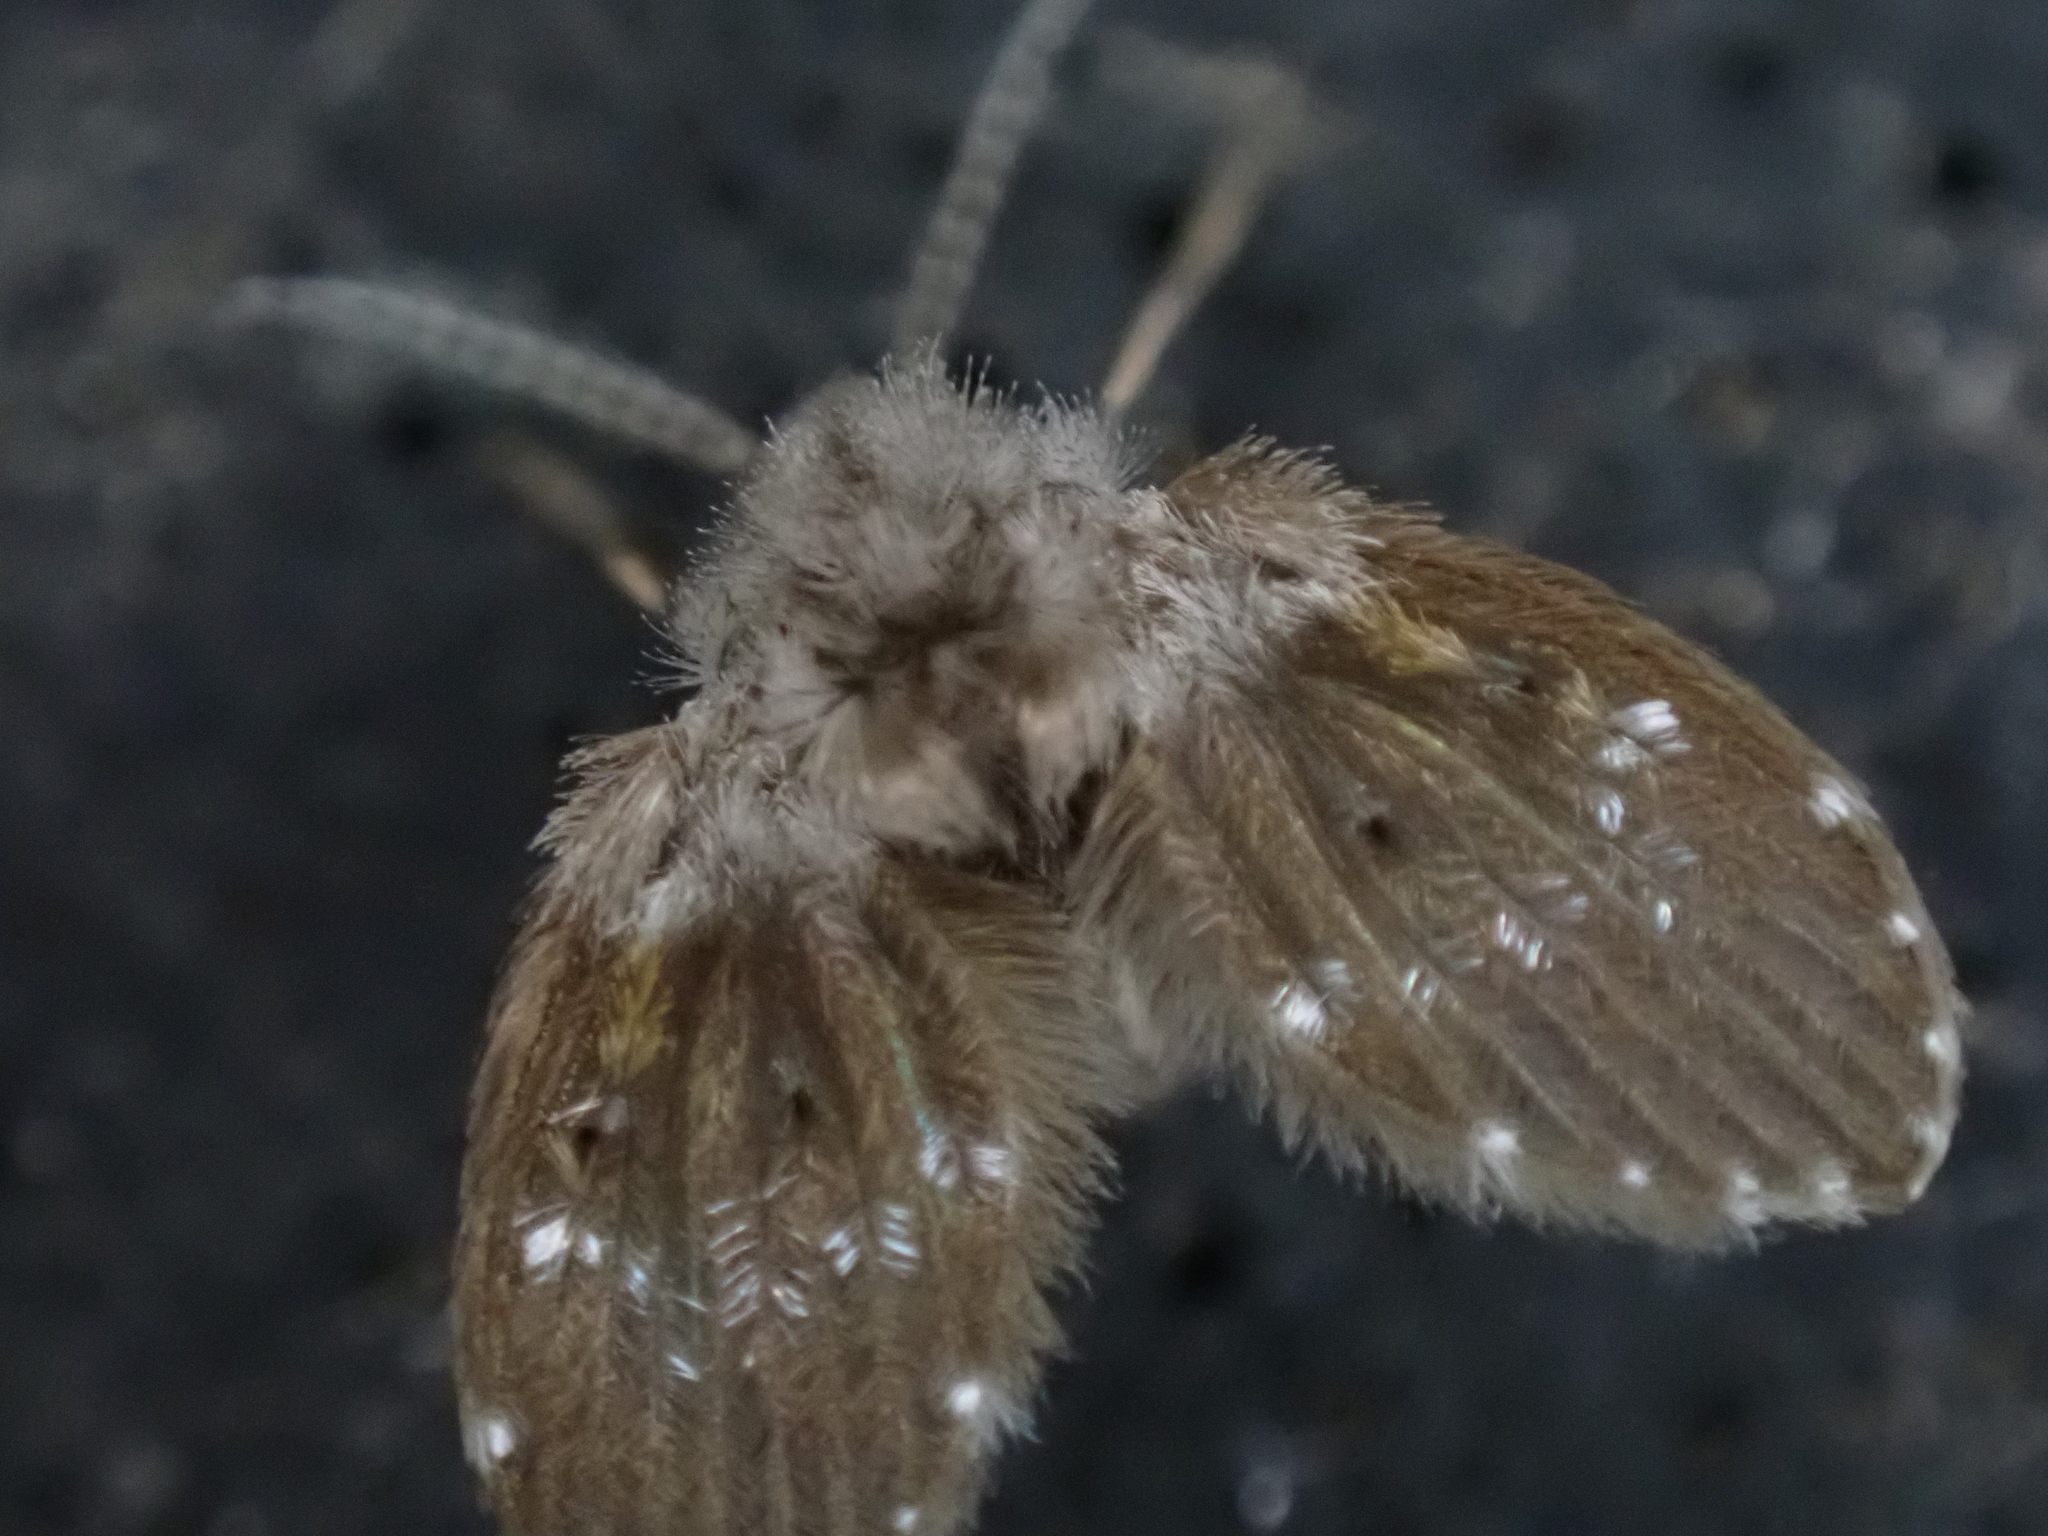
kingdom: Animalia
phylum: Arthropoda
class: Insecta
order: Diptera
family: Psychodidae
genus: Clogmia
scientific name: Clogmia albipunctatus
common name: White-spotted moth fly
